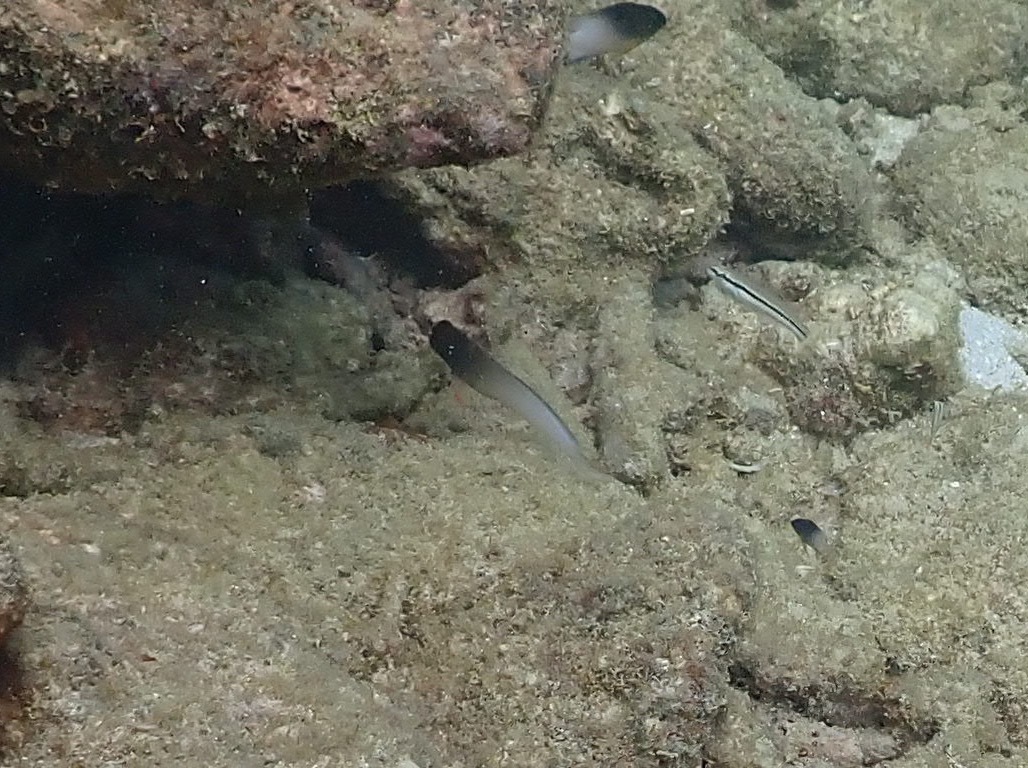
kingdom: Animalia
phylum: Chordata
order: Perciformes
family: Blenniidae
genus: Ophioblennius
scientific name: Ophioblennius macclurei
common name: Redlip blenny
